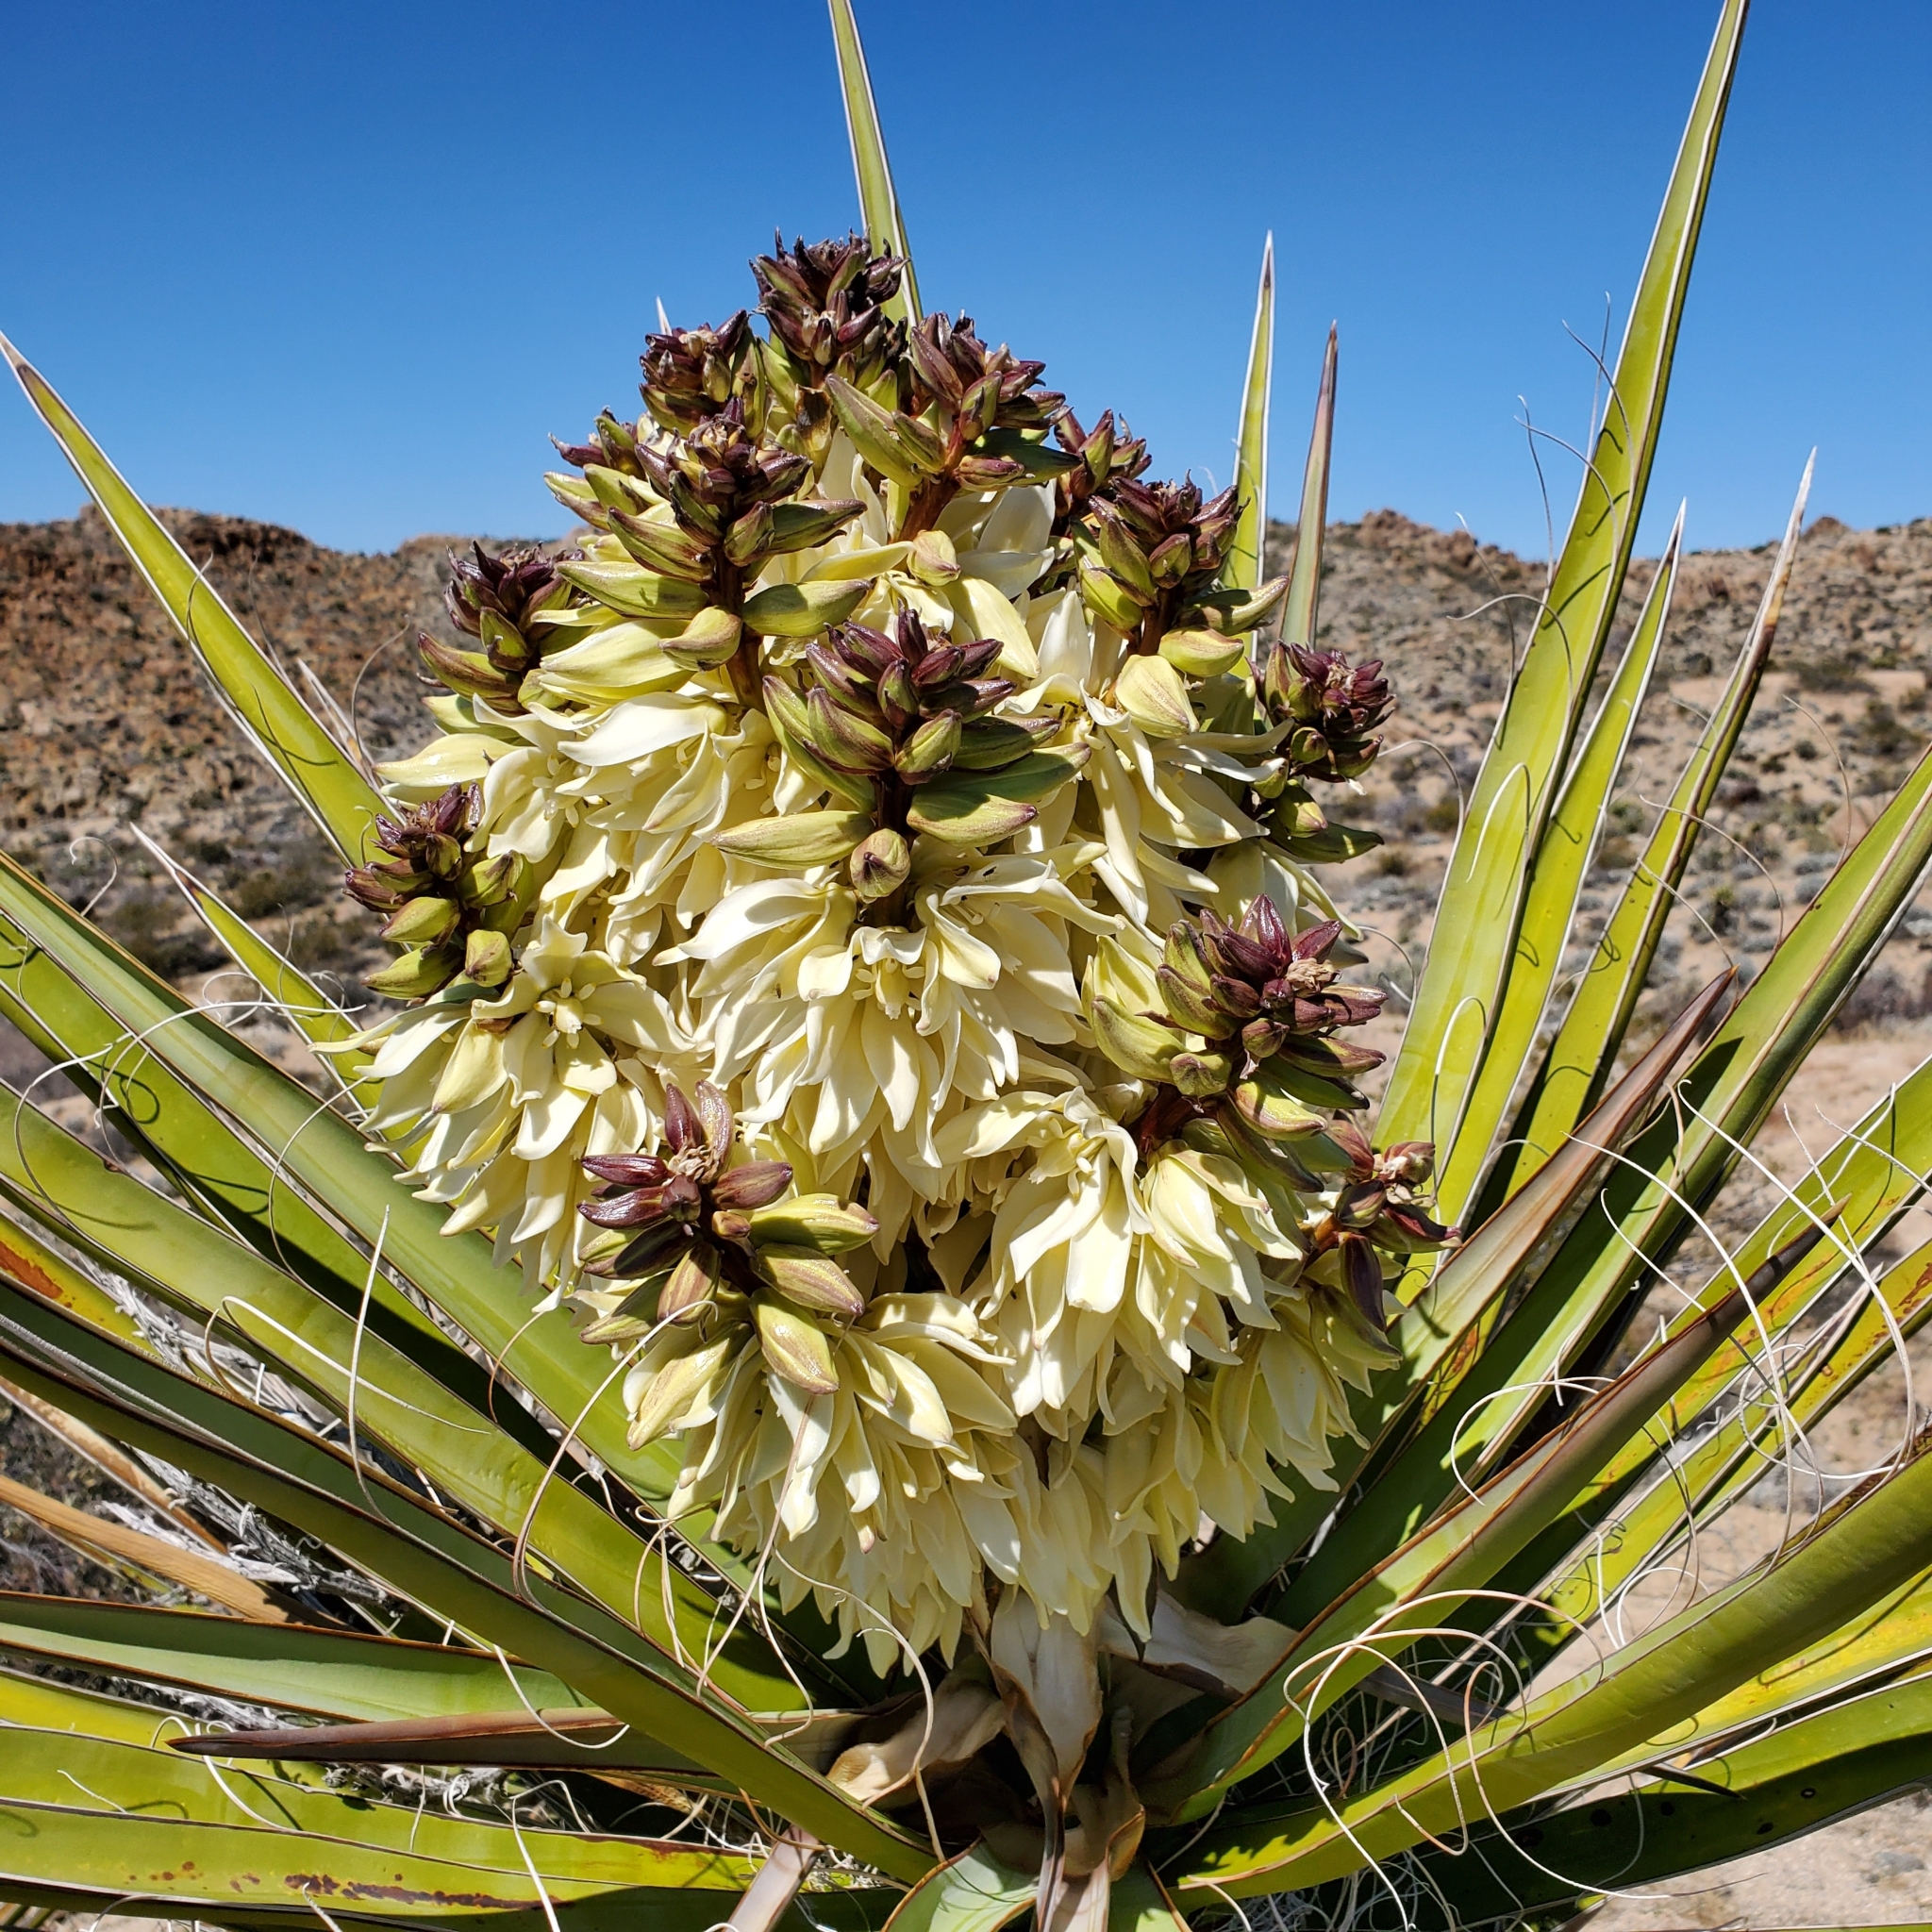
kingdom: Plantae
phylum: Tracheophyta
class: Liliopsida
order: Asparagales
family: Asparagaceae
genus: Yucca
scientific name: Yucca schidigera
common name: Mojave yucca
